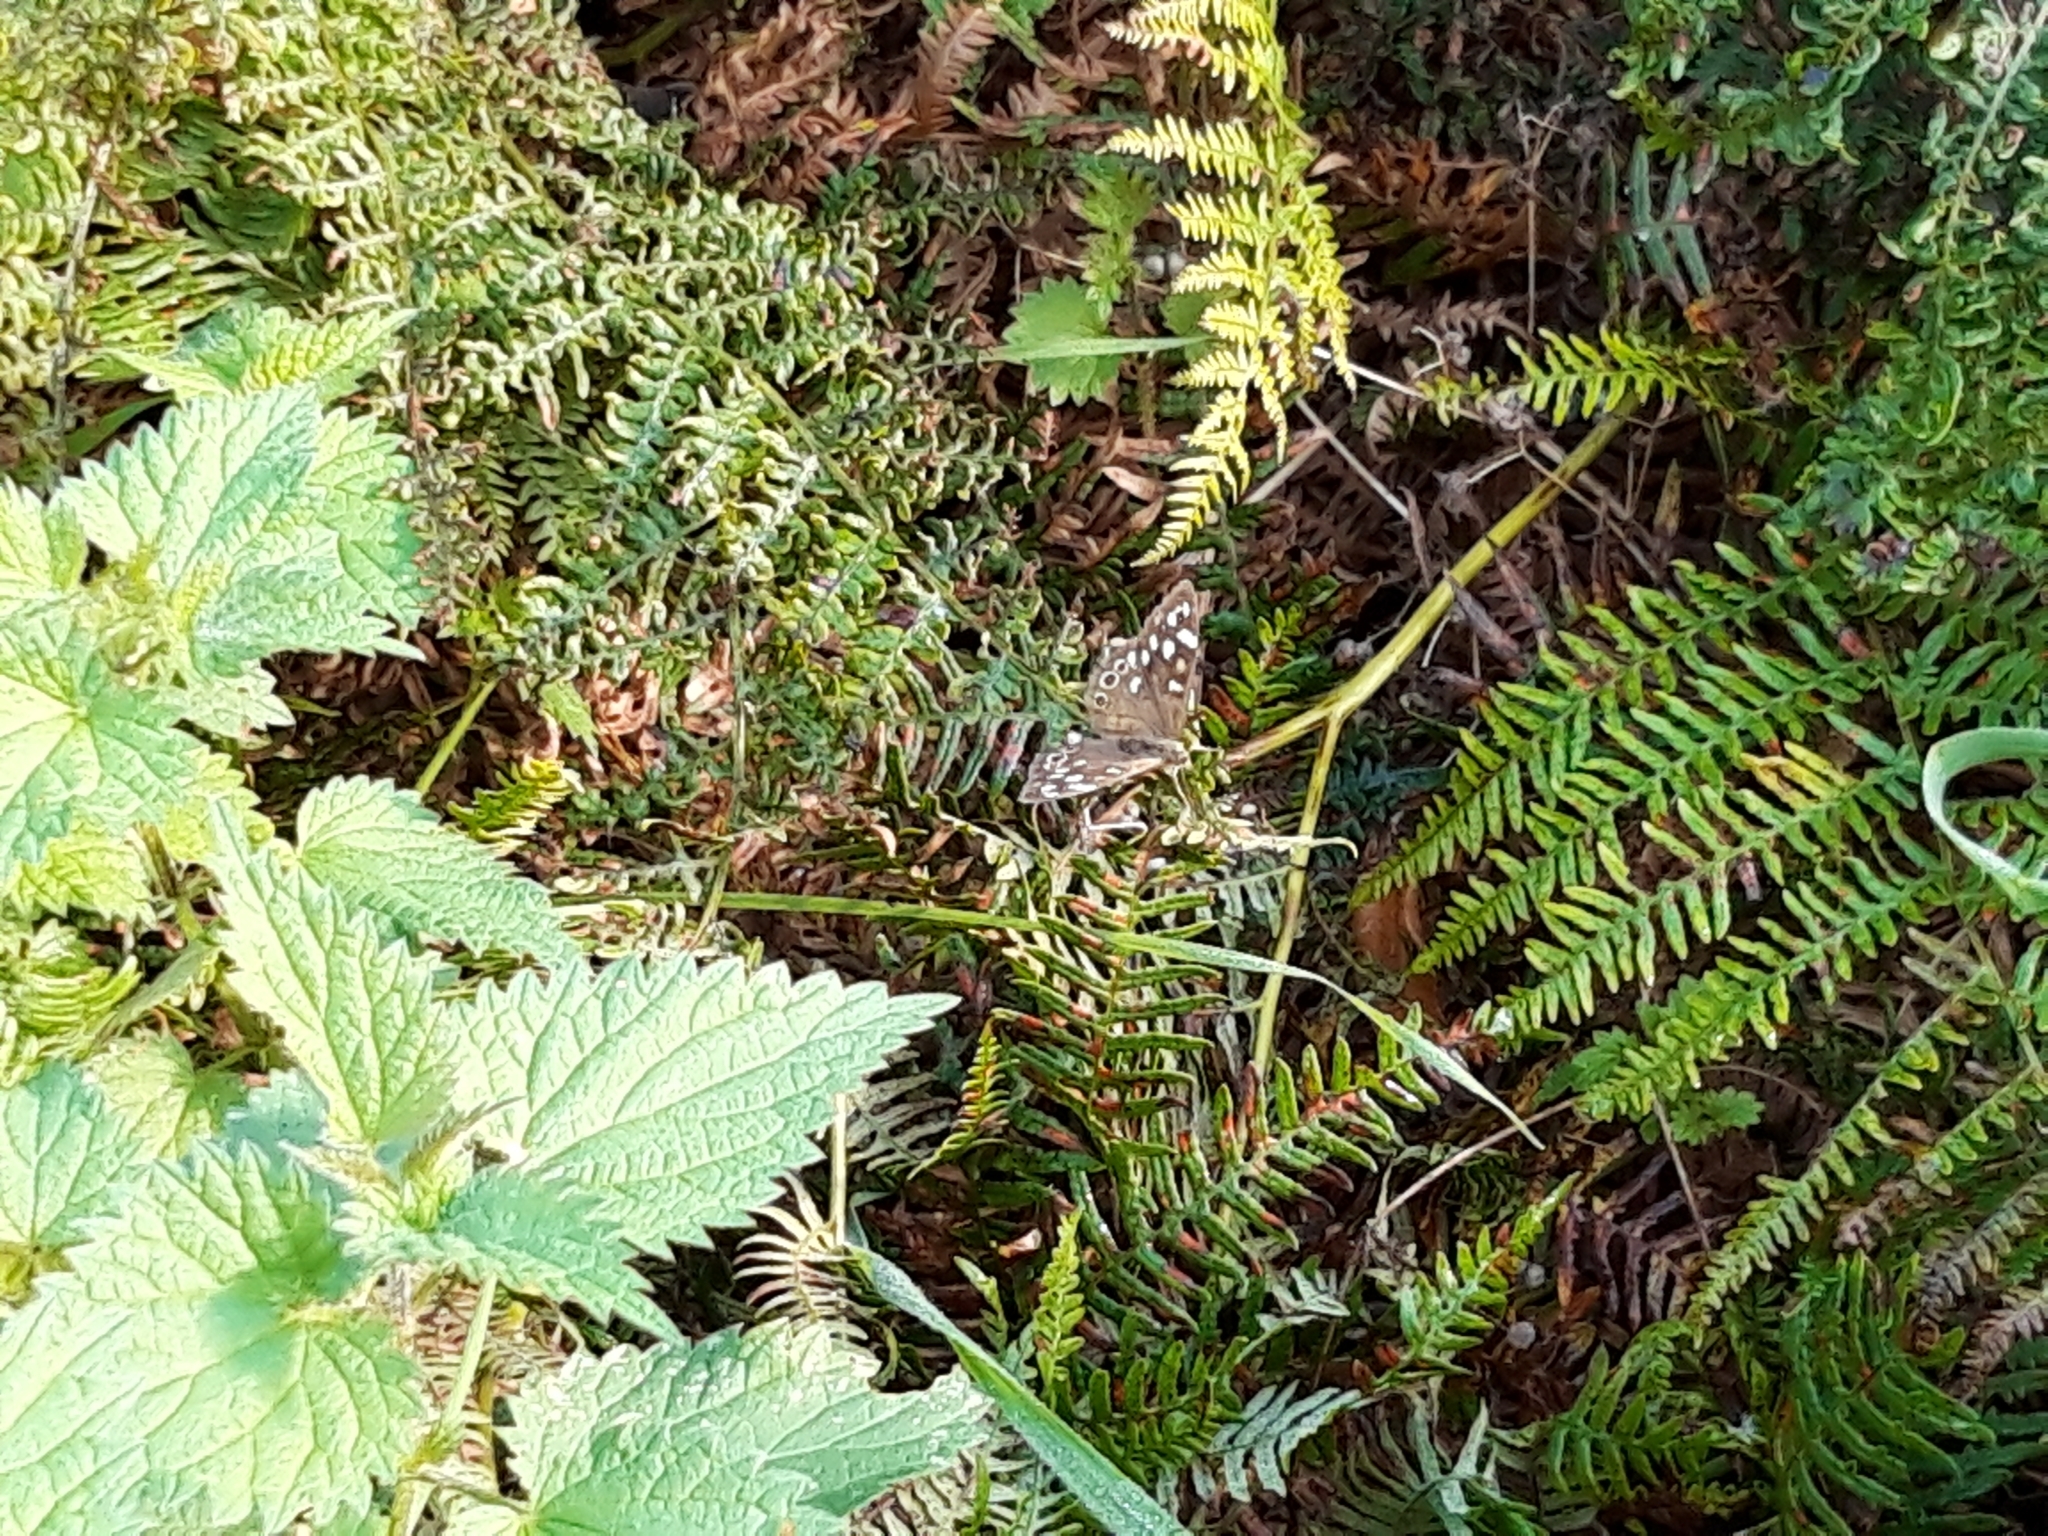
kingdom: Animalia
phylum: Arthropoda
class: Insecta
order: Lepidoptera
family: Nymphalidae
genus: Pararge
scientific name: Pararge aegeria
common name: Speckled wood
